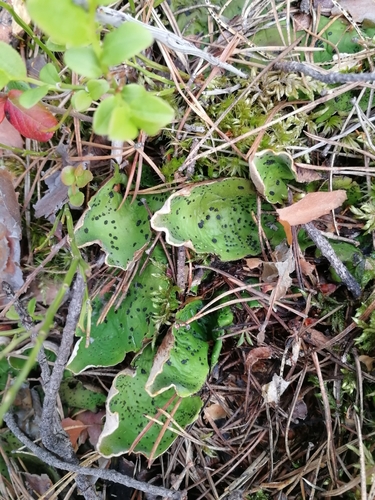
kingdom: Fungi
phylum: Ascomycota
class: Lecanoromycetes
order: Peltigerales
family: Peltigeraceae
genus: Peltigera
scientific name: Peltigera aphthosa
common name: Common freckle pelt lichen
